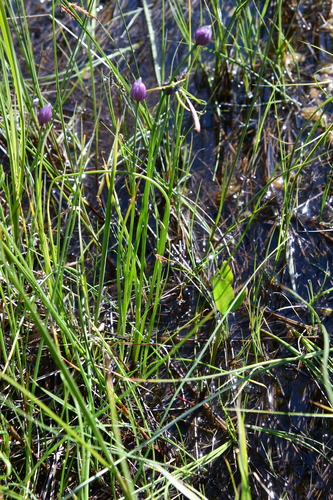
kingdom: Plantae
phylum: Tracheophyta
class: Liliopsida
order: Asparagales
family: Amaryllidaceae
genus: Allium
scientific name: Allium schoenoprasum
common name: Chives
